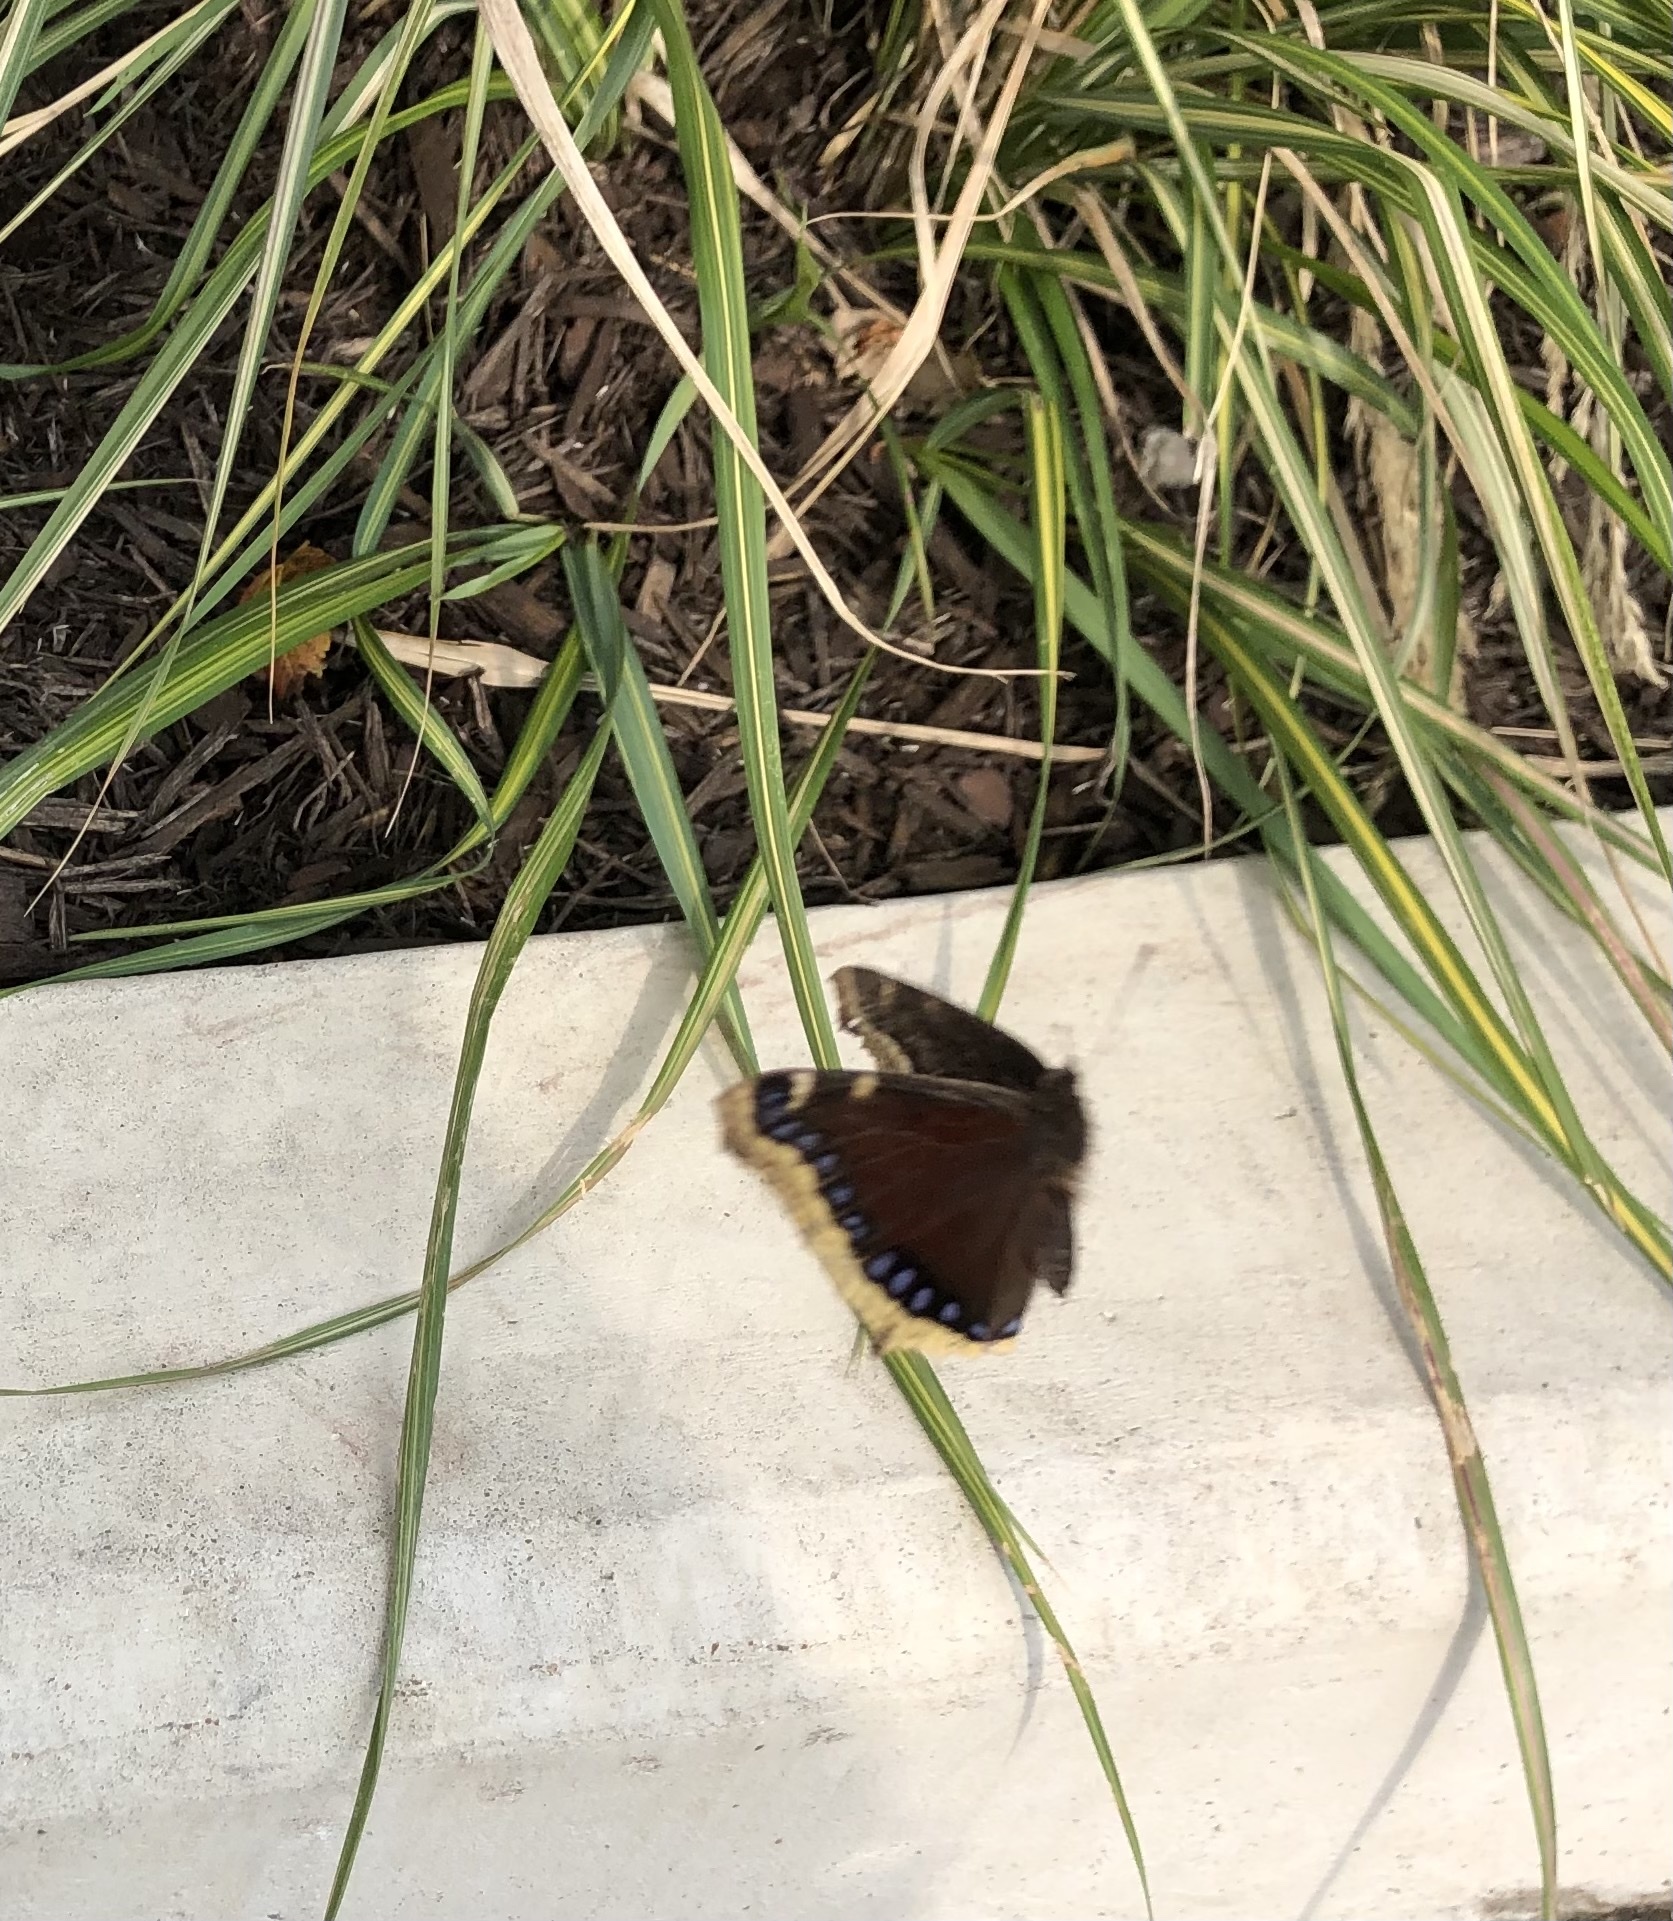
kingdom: Animalia
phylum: Arthropoda
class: Insecta
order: Lepidoptera
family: Nymphalidae
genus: Nymphalis
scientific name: Nymphalis antiopa
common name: Camberwell beauty
